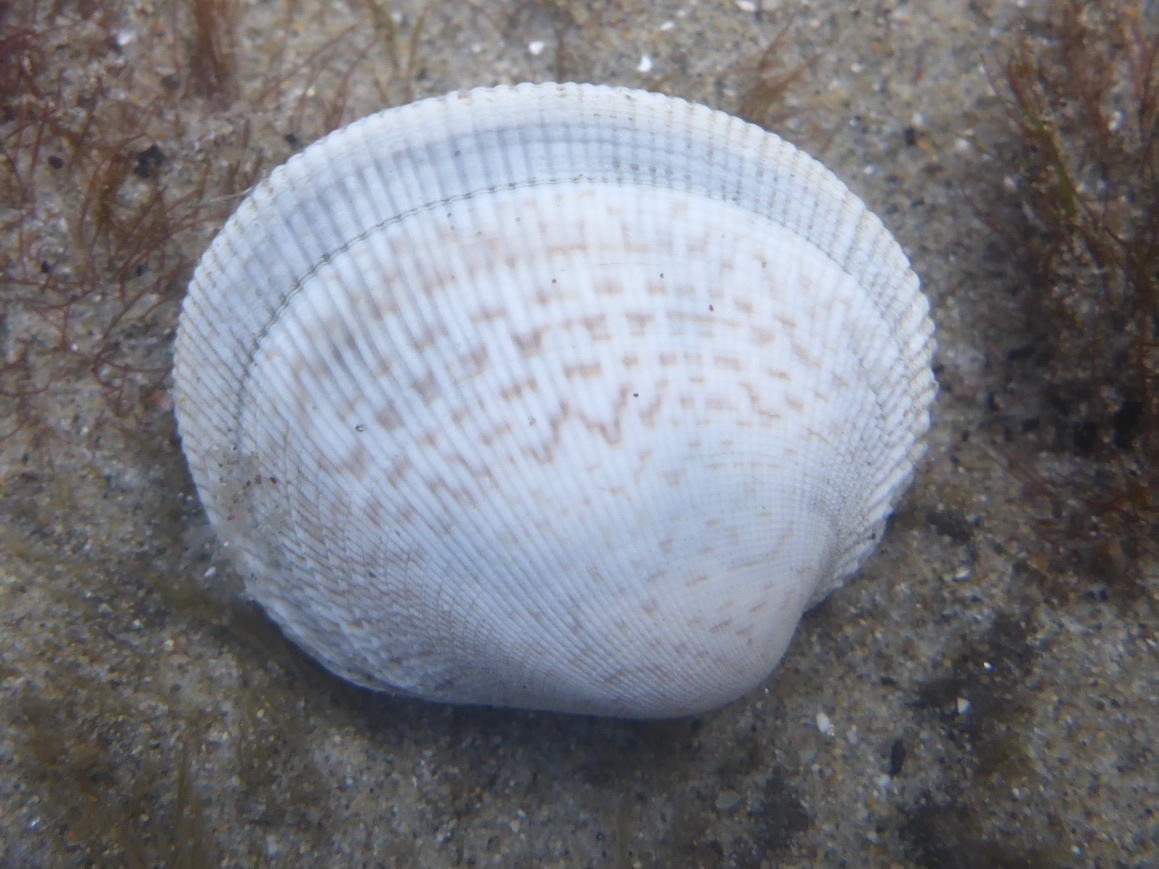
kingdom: Animalia
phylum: Mollusca
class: Bivalvia
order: Venerida
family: Veneridae
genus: Leukoma
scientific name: Leukoma staminea
